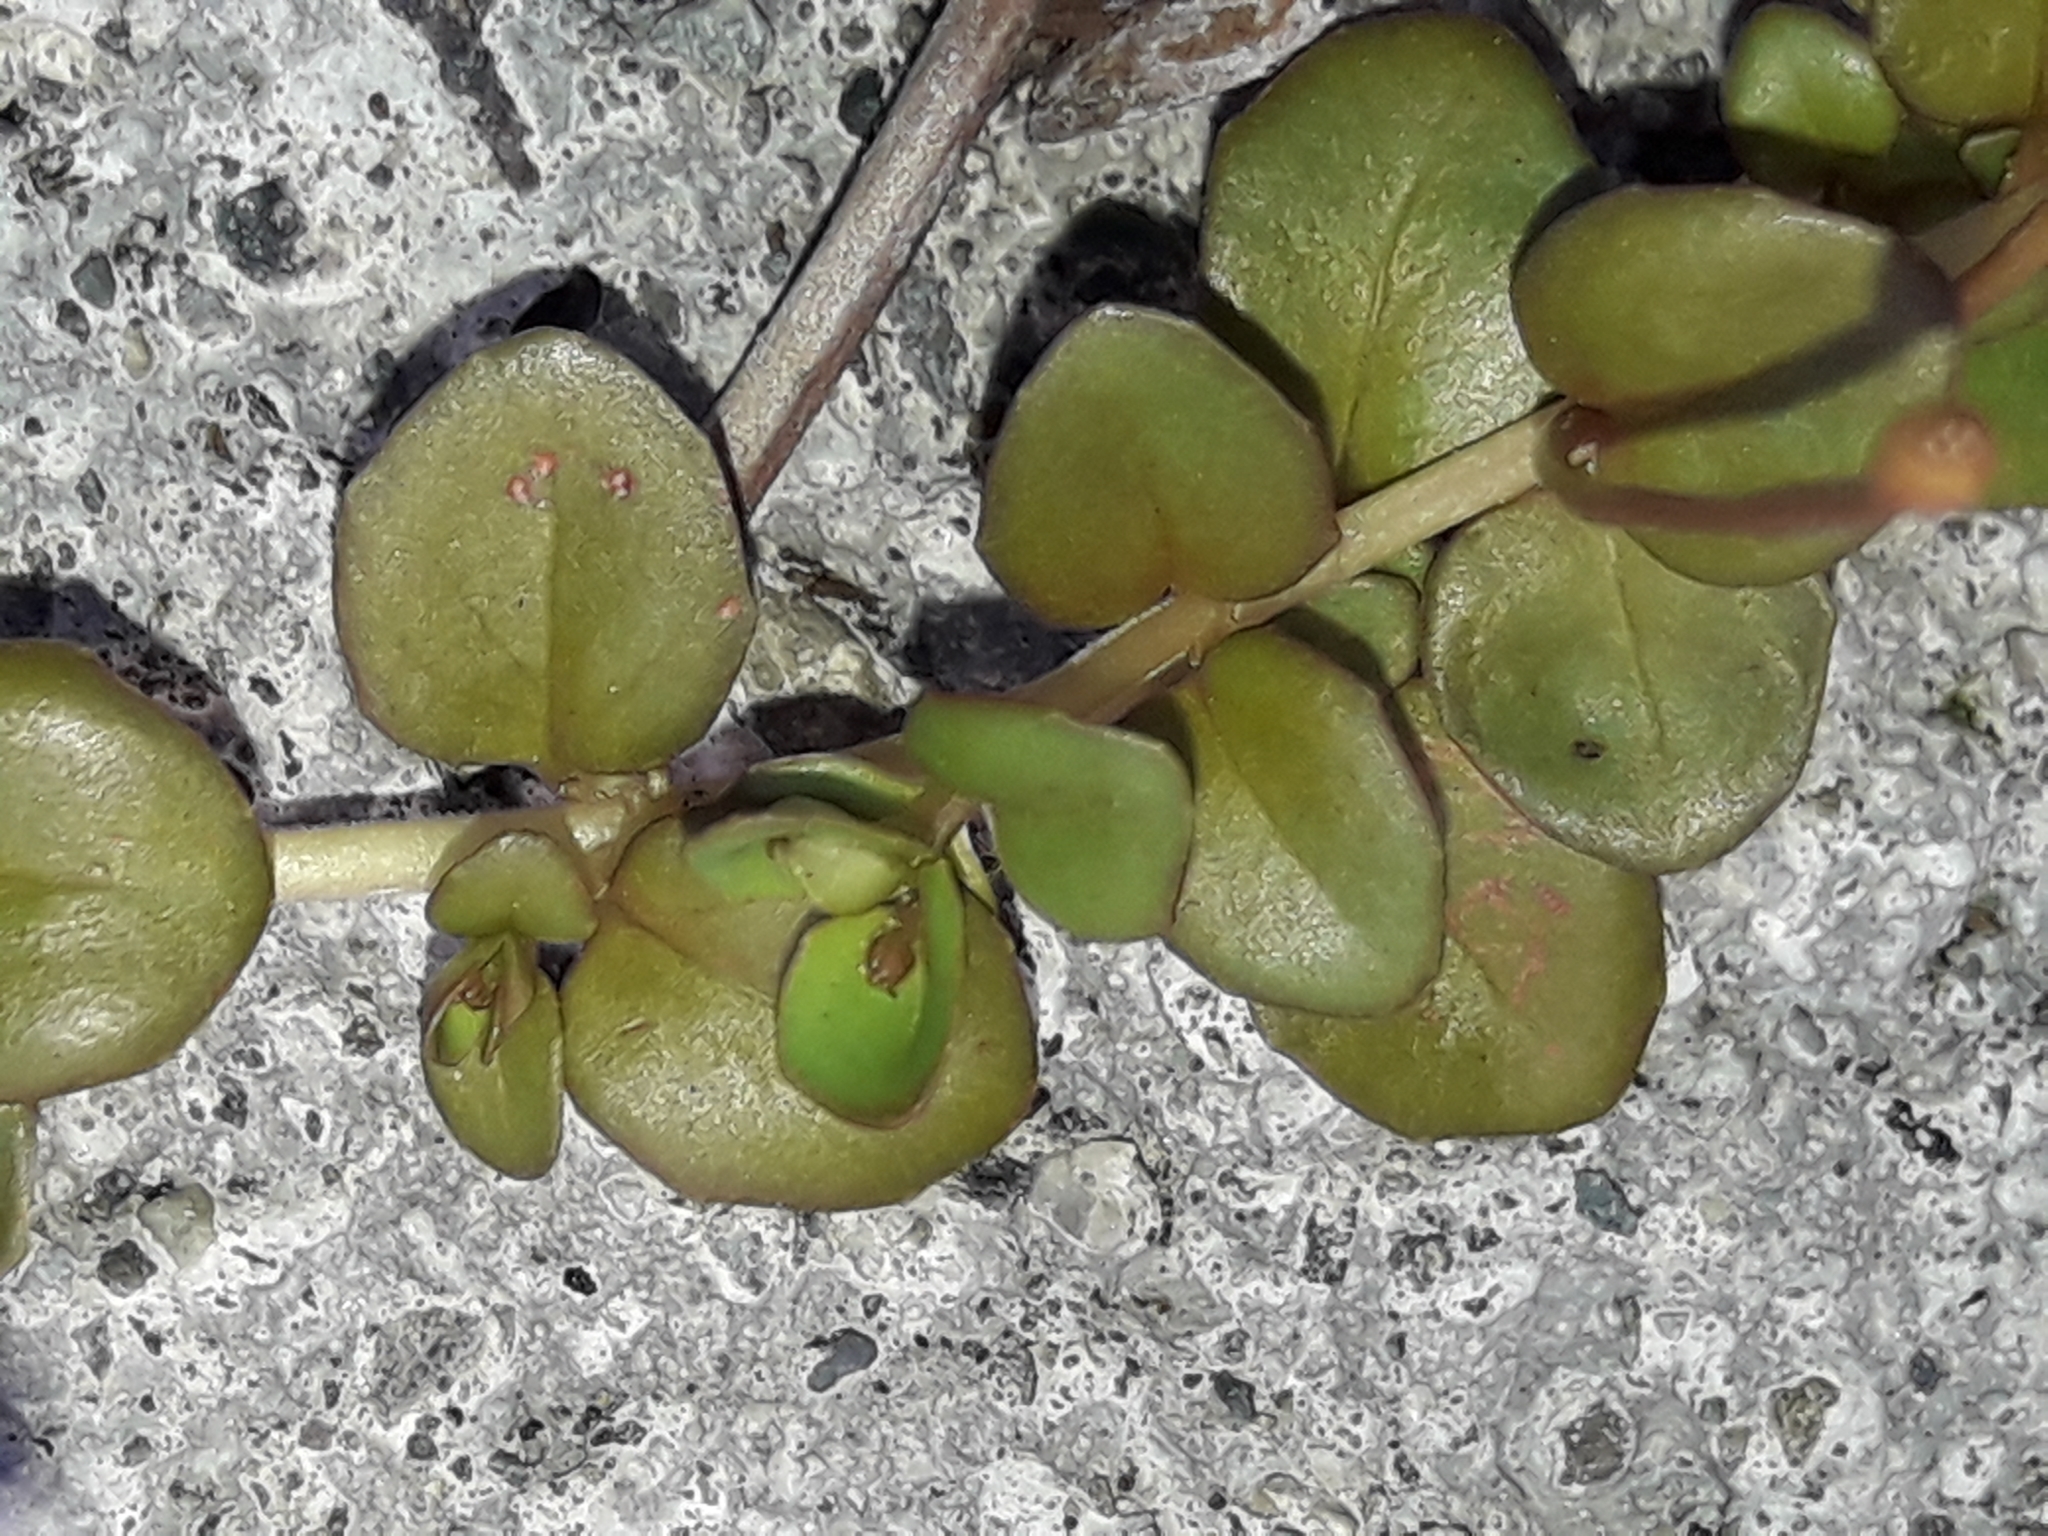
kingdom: Plantae
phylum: Tracheophyta
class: Magnoliopsida
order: Myrtales
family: Onagraceae
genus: Epilobium
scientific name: Epilobium brunnescens
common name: New zealand willowherb
